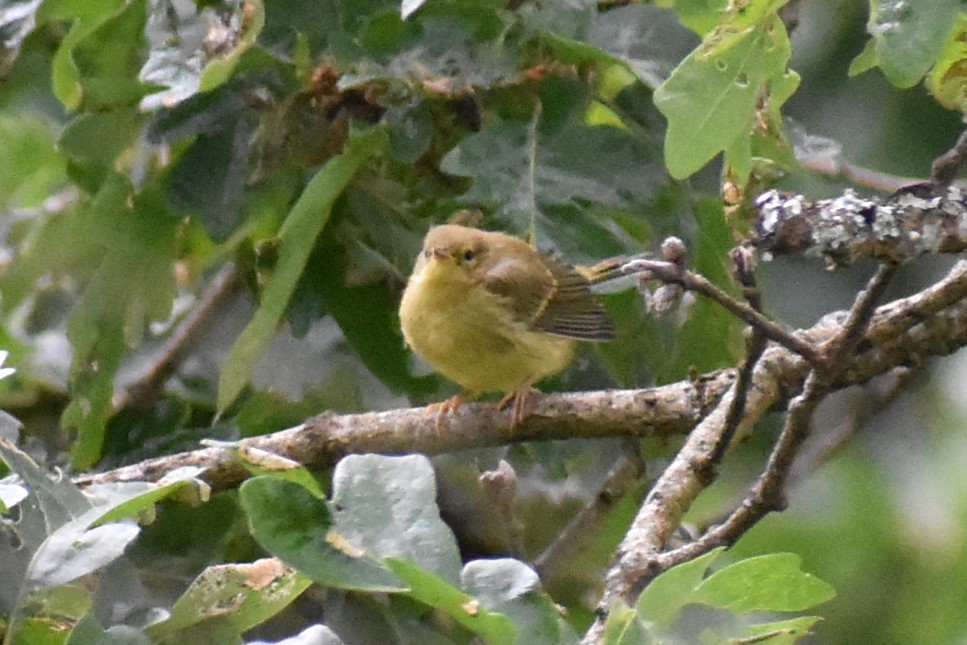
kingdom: Animalia
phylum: Chordata
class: Aves
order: Passeriformes
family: Parulidae
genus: Leiothlypis
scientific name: Leiothlypis celata
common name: Orange-crowned warbler
